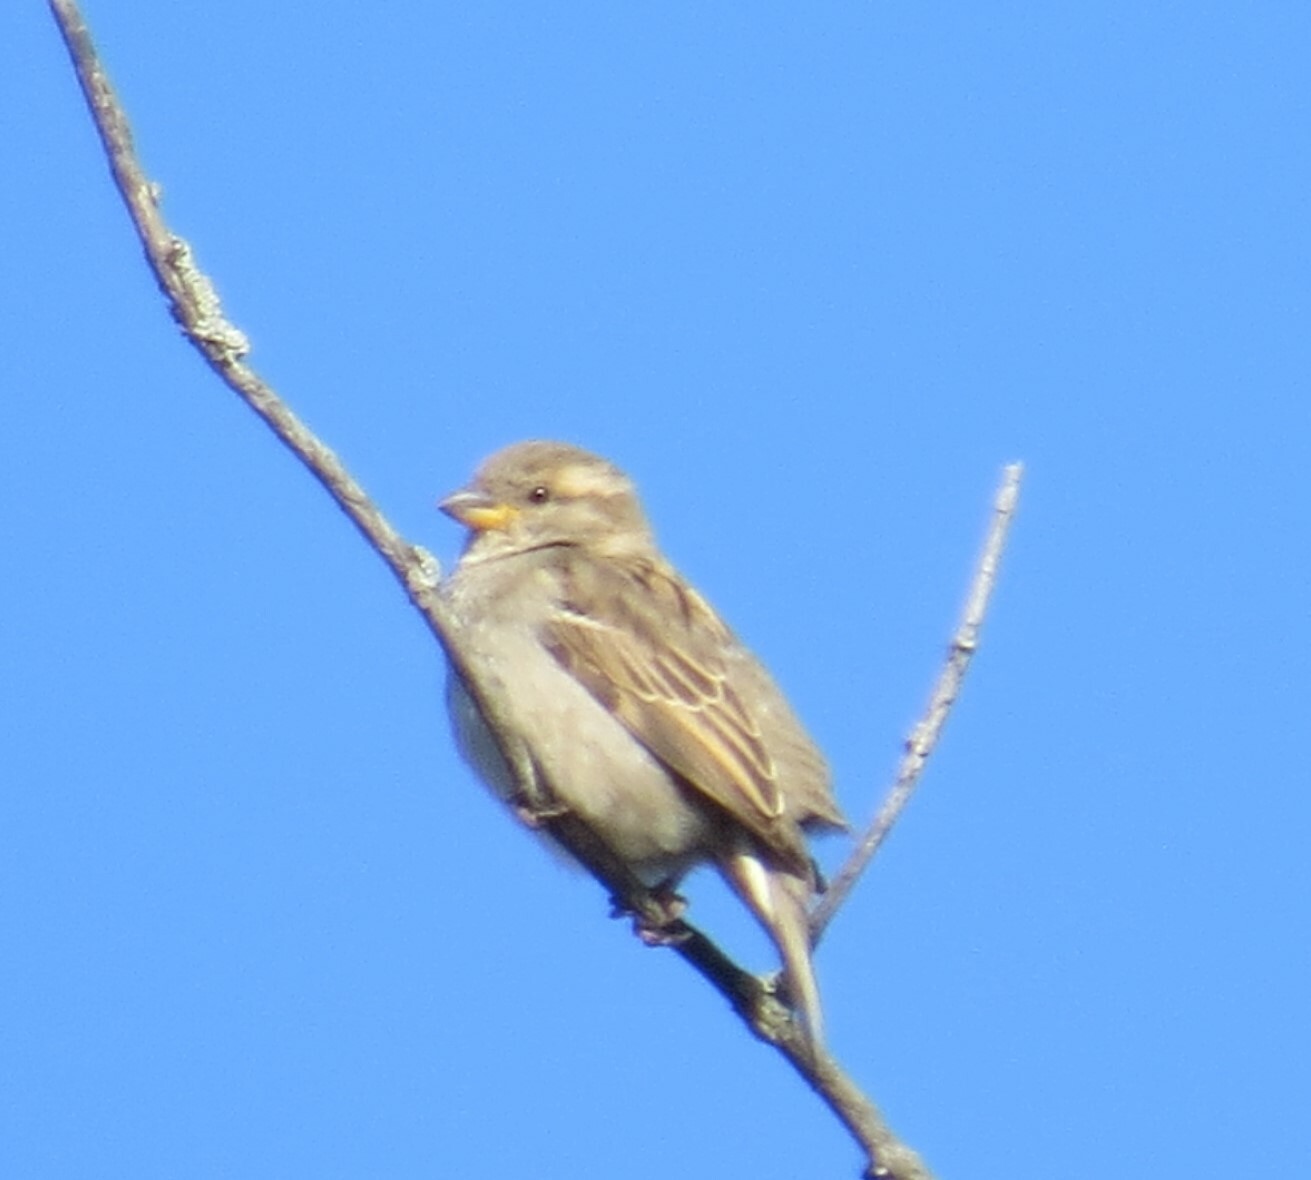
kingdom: Animalia
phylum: Chordata
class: Aves
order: Passeriformes
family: Passeridae
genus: Passer
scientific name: Passer domesticus
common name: House sparrow
